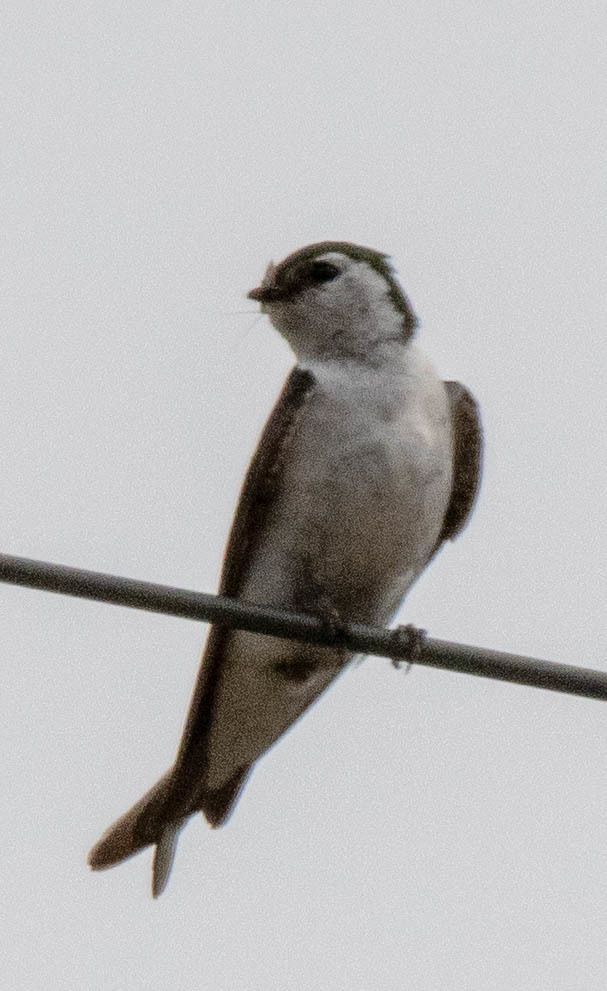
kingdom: Animalia
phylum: Chordata
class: Aves
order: Passeriformes
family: Hirundinidae
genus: Tachycineta
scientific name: Tachycineta thalassina
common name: Violet-green swallow
